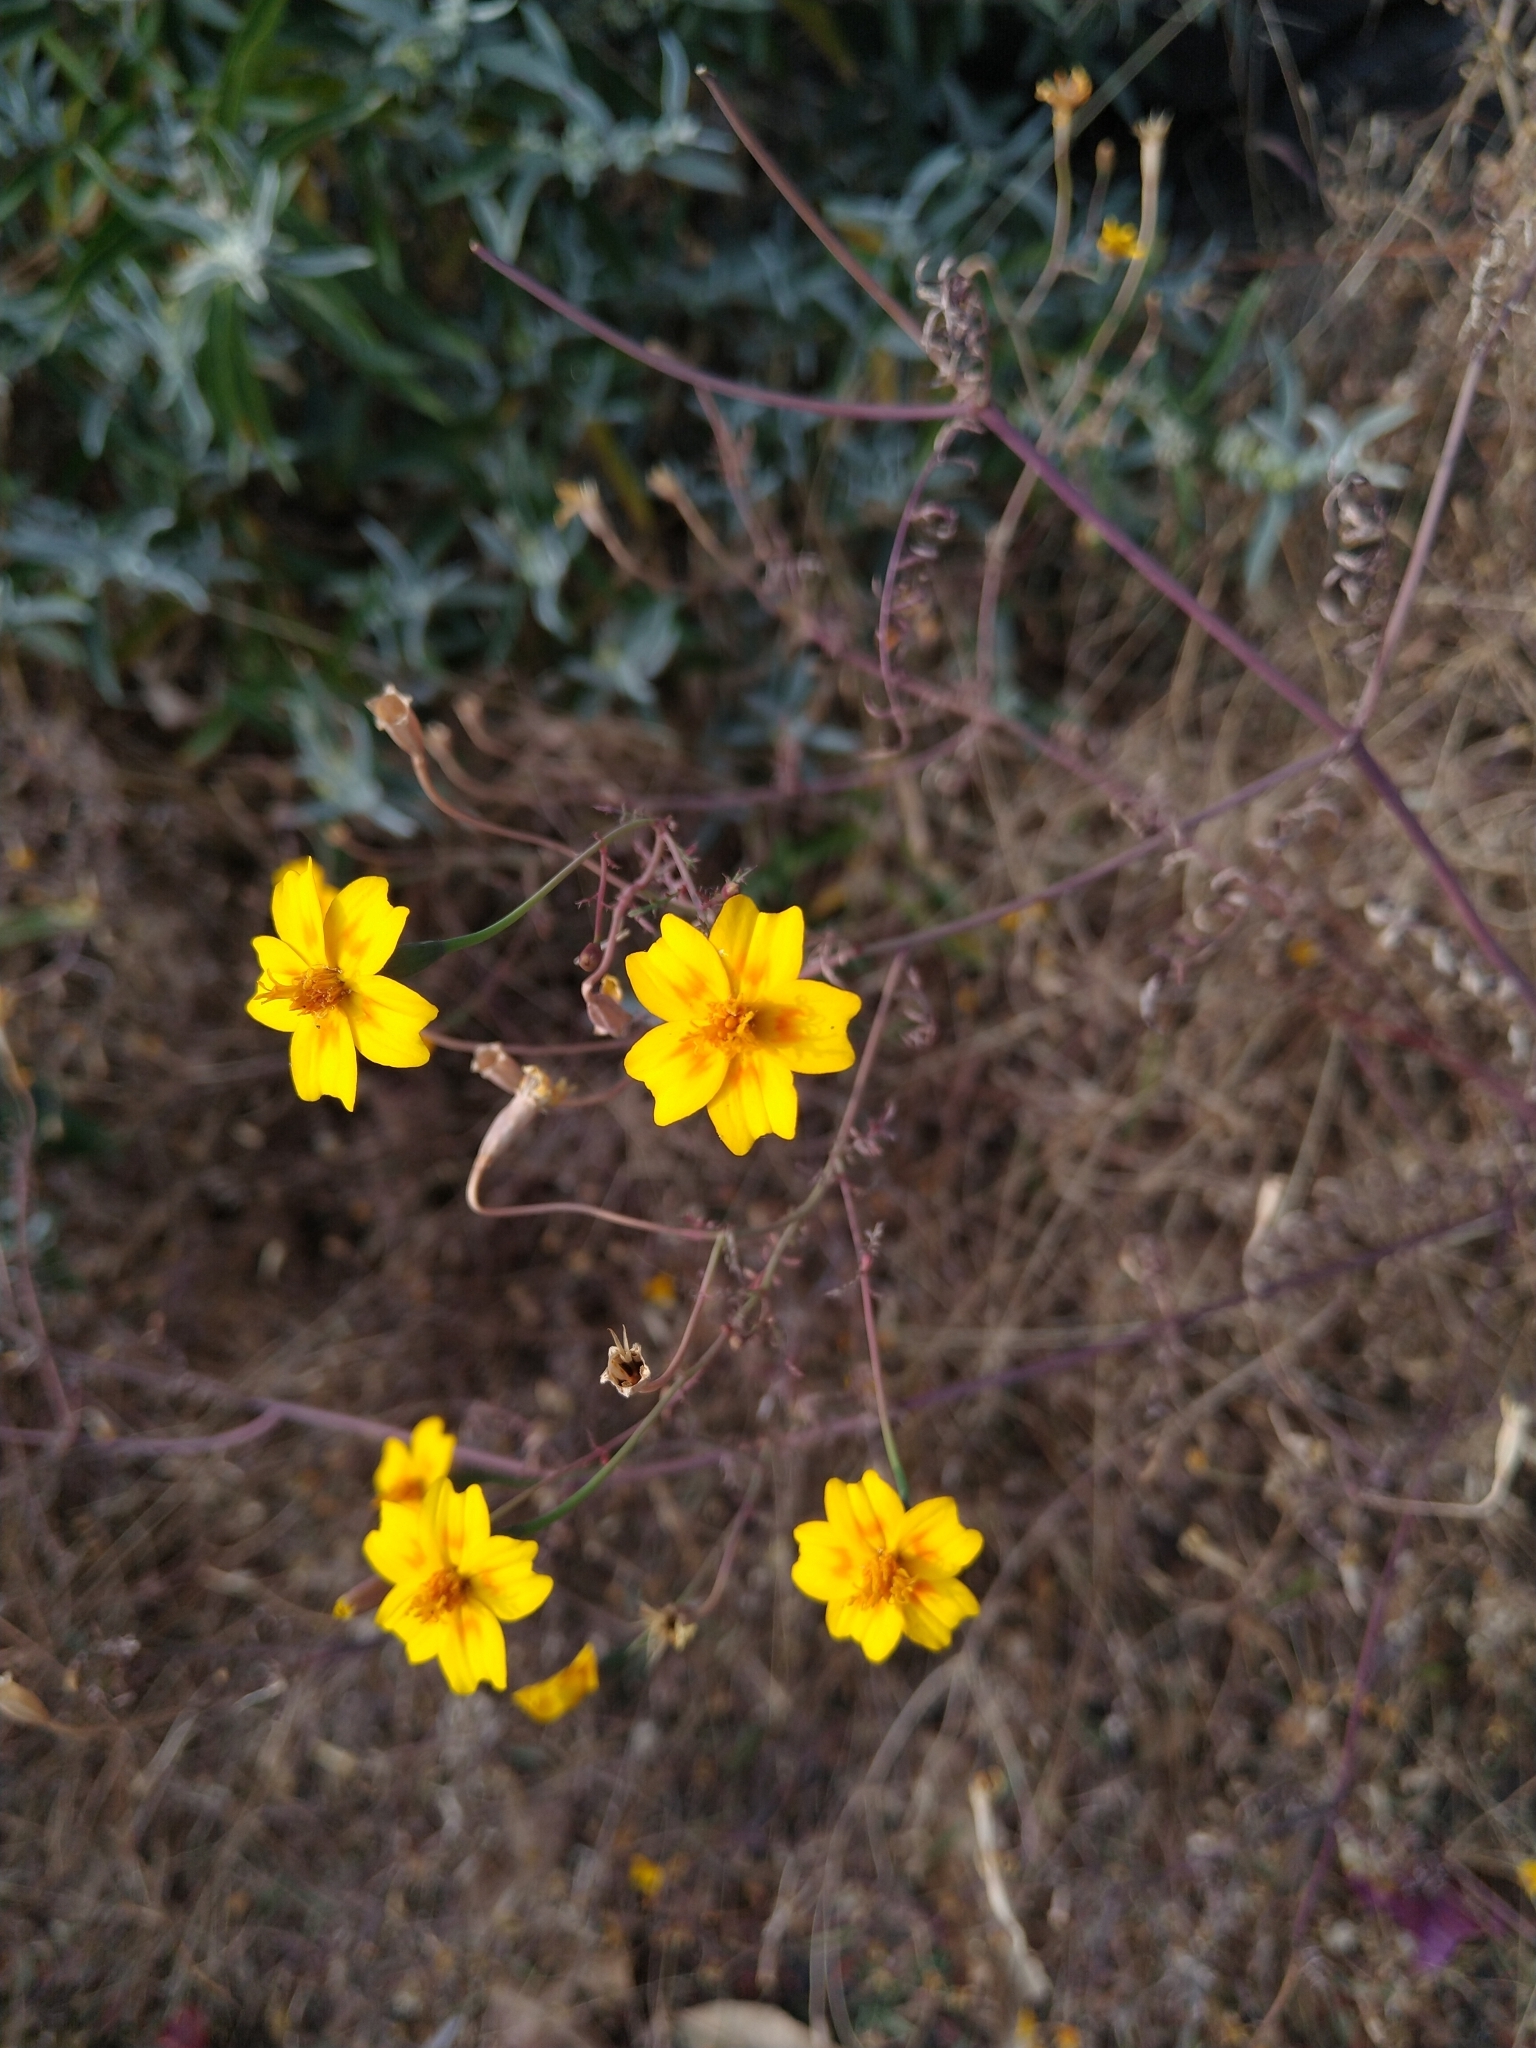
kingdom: Plantae
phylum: Tracheophyta
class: Magnoliopsida
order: Asterales
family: Asteraceae
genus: Tagetes
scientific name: Tagetes lunulata
